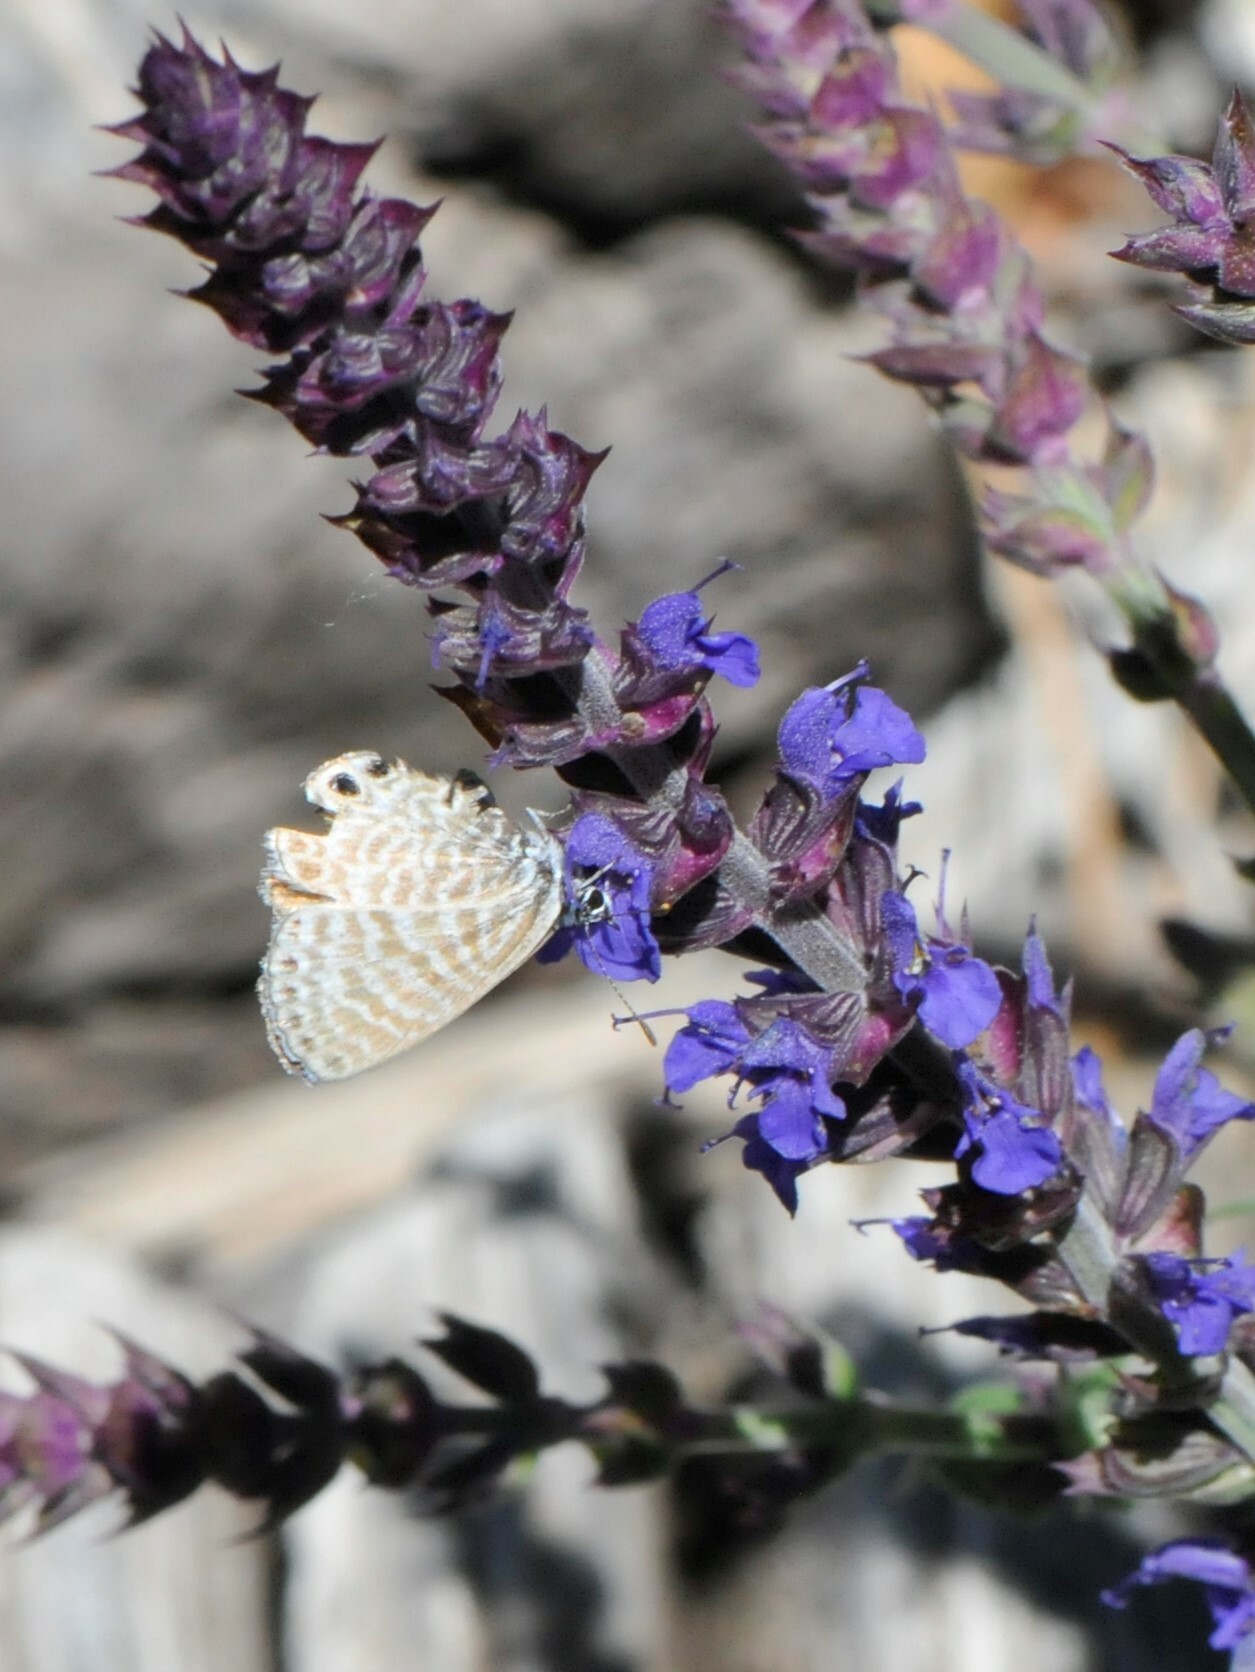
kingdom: Animalia
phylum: Arthropoda
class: Insecta
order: Lepidoptera
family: Lycaenidae
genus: Leptotes
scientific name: Leptotes marina
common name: Marine blue
